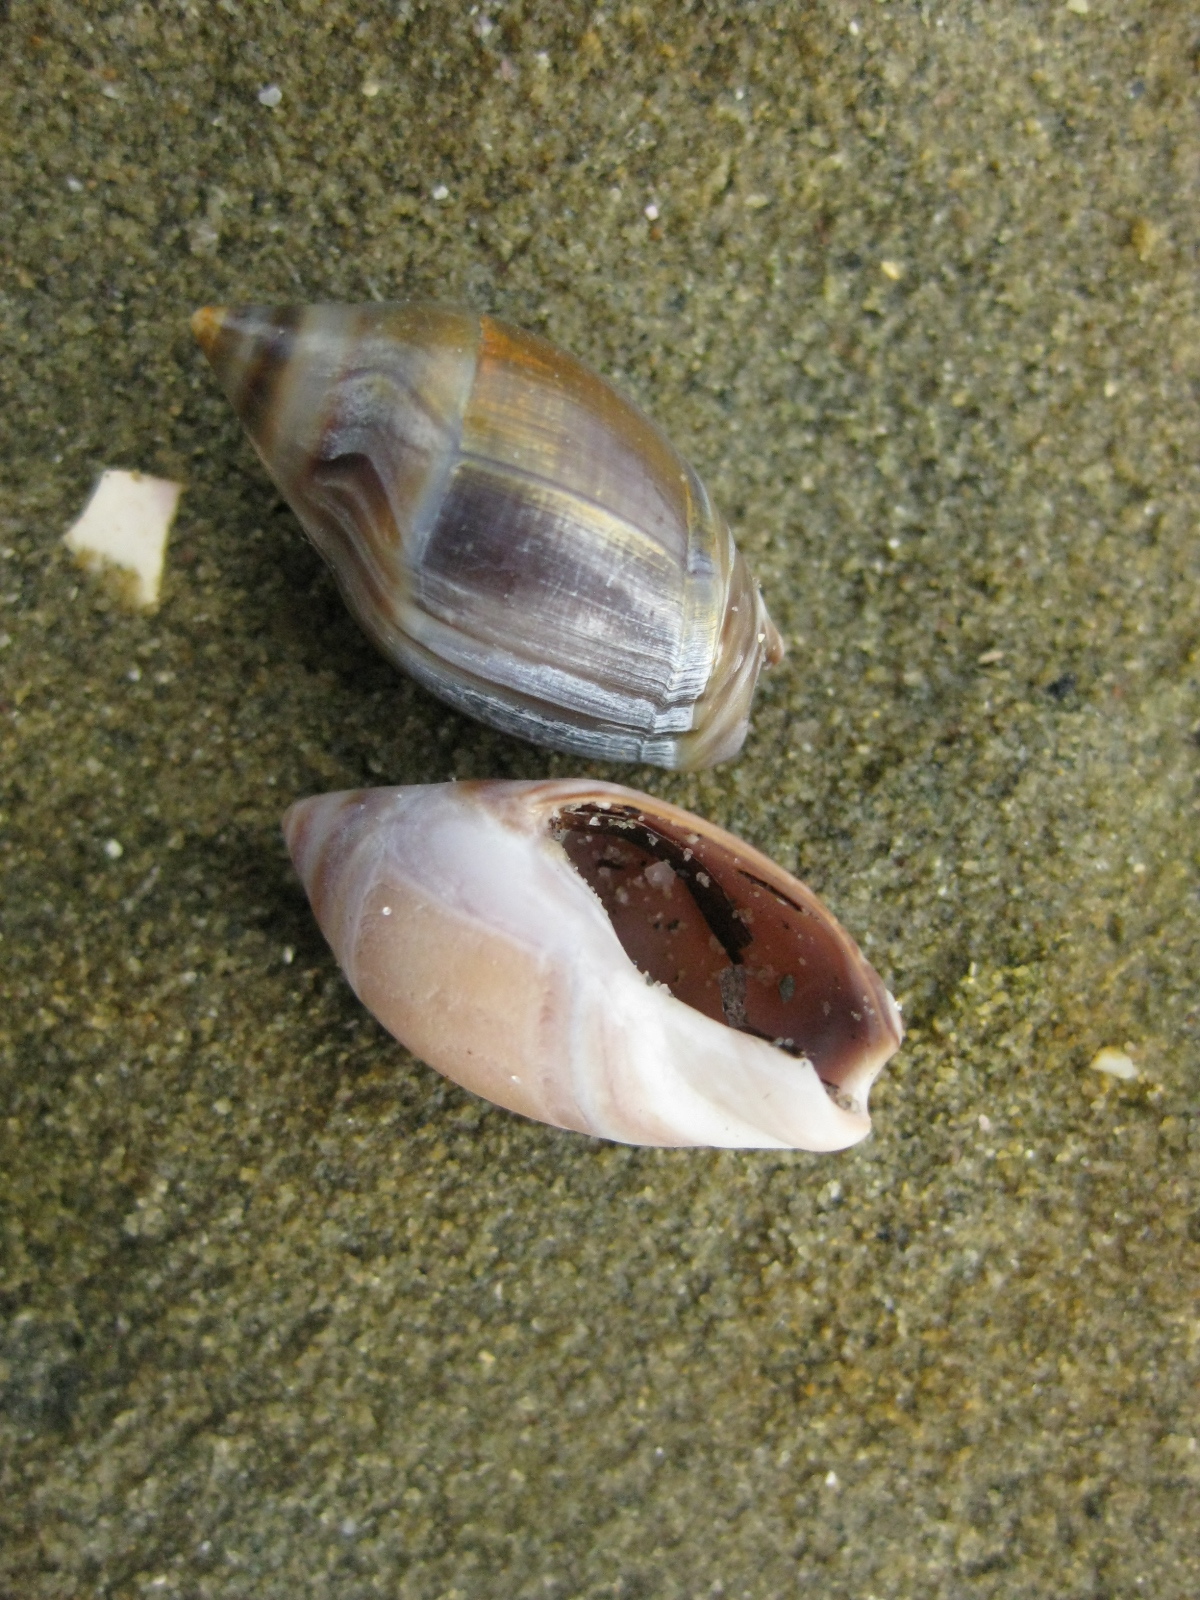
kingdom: Animalia
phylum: Mollusca
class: Gastropoda
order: Neogastropoda
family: Ancillariidae
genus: Amalda
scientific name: Amalda australis
